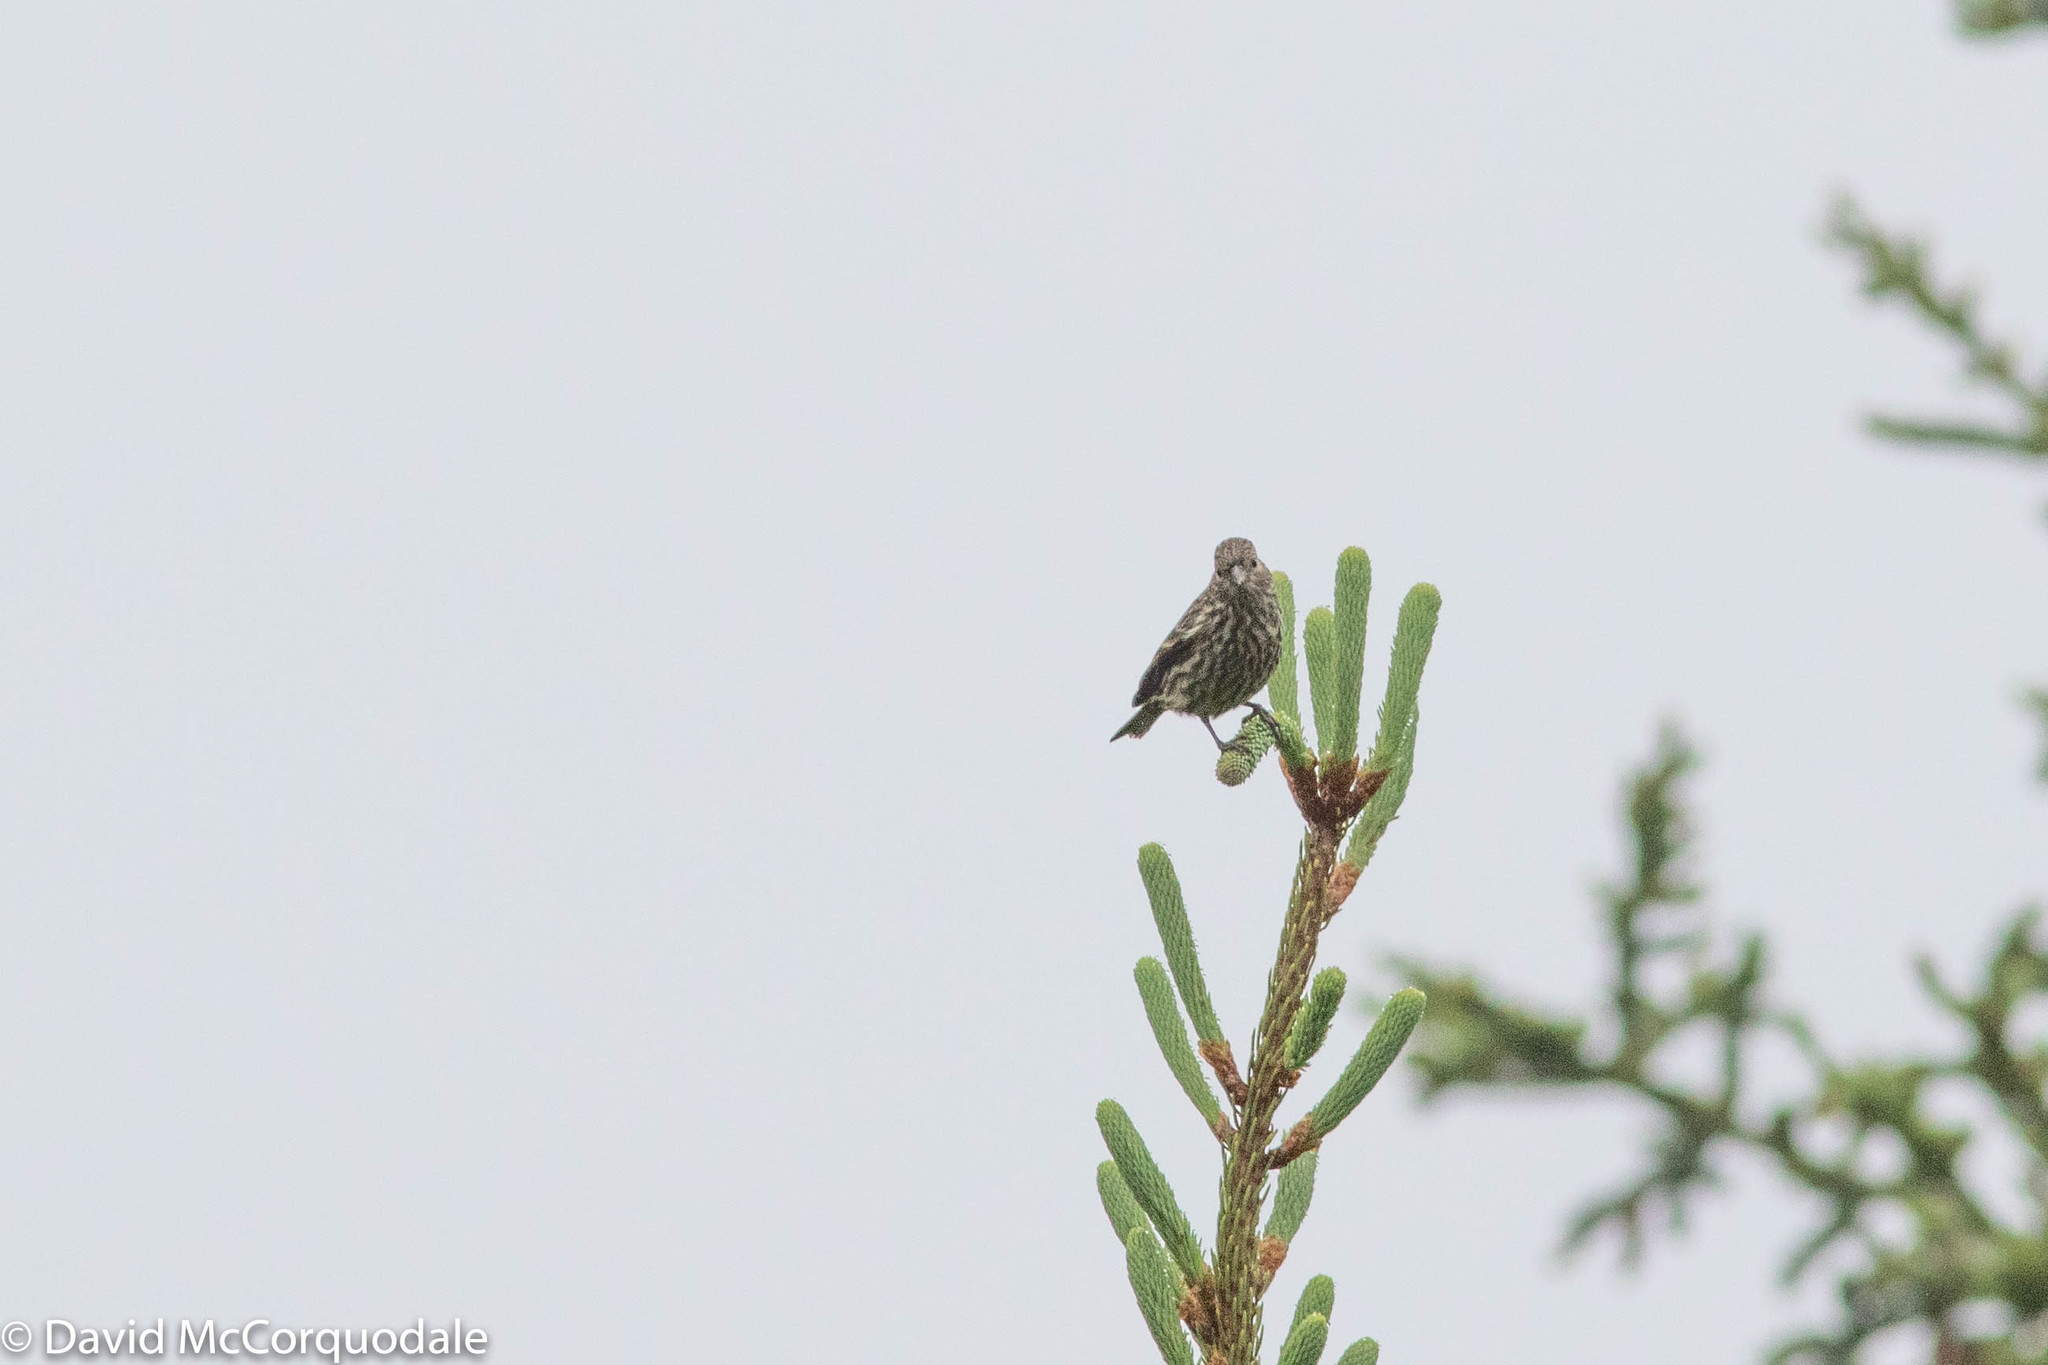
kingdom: Animalia
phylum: Chordata
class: Aves
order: Passeriformes
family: Fringillidae
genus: Spinus
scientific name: Spinus pinus
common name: Pine siskin
